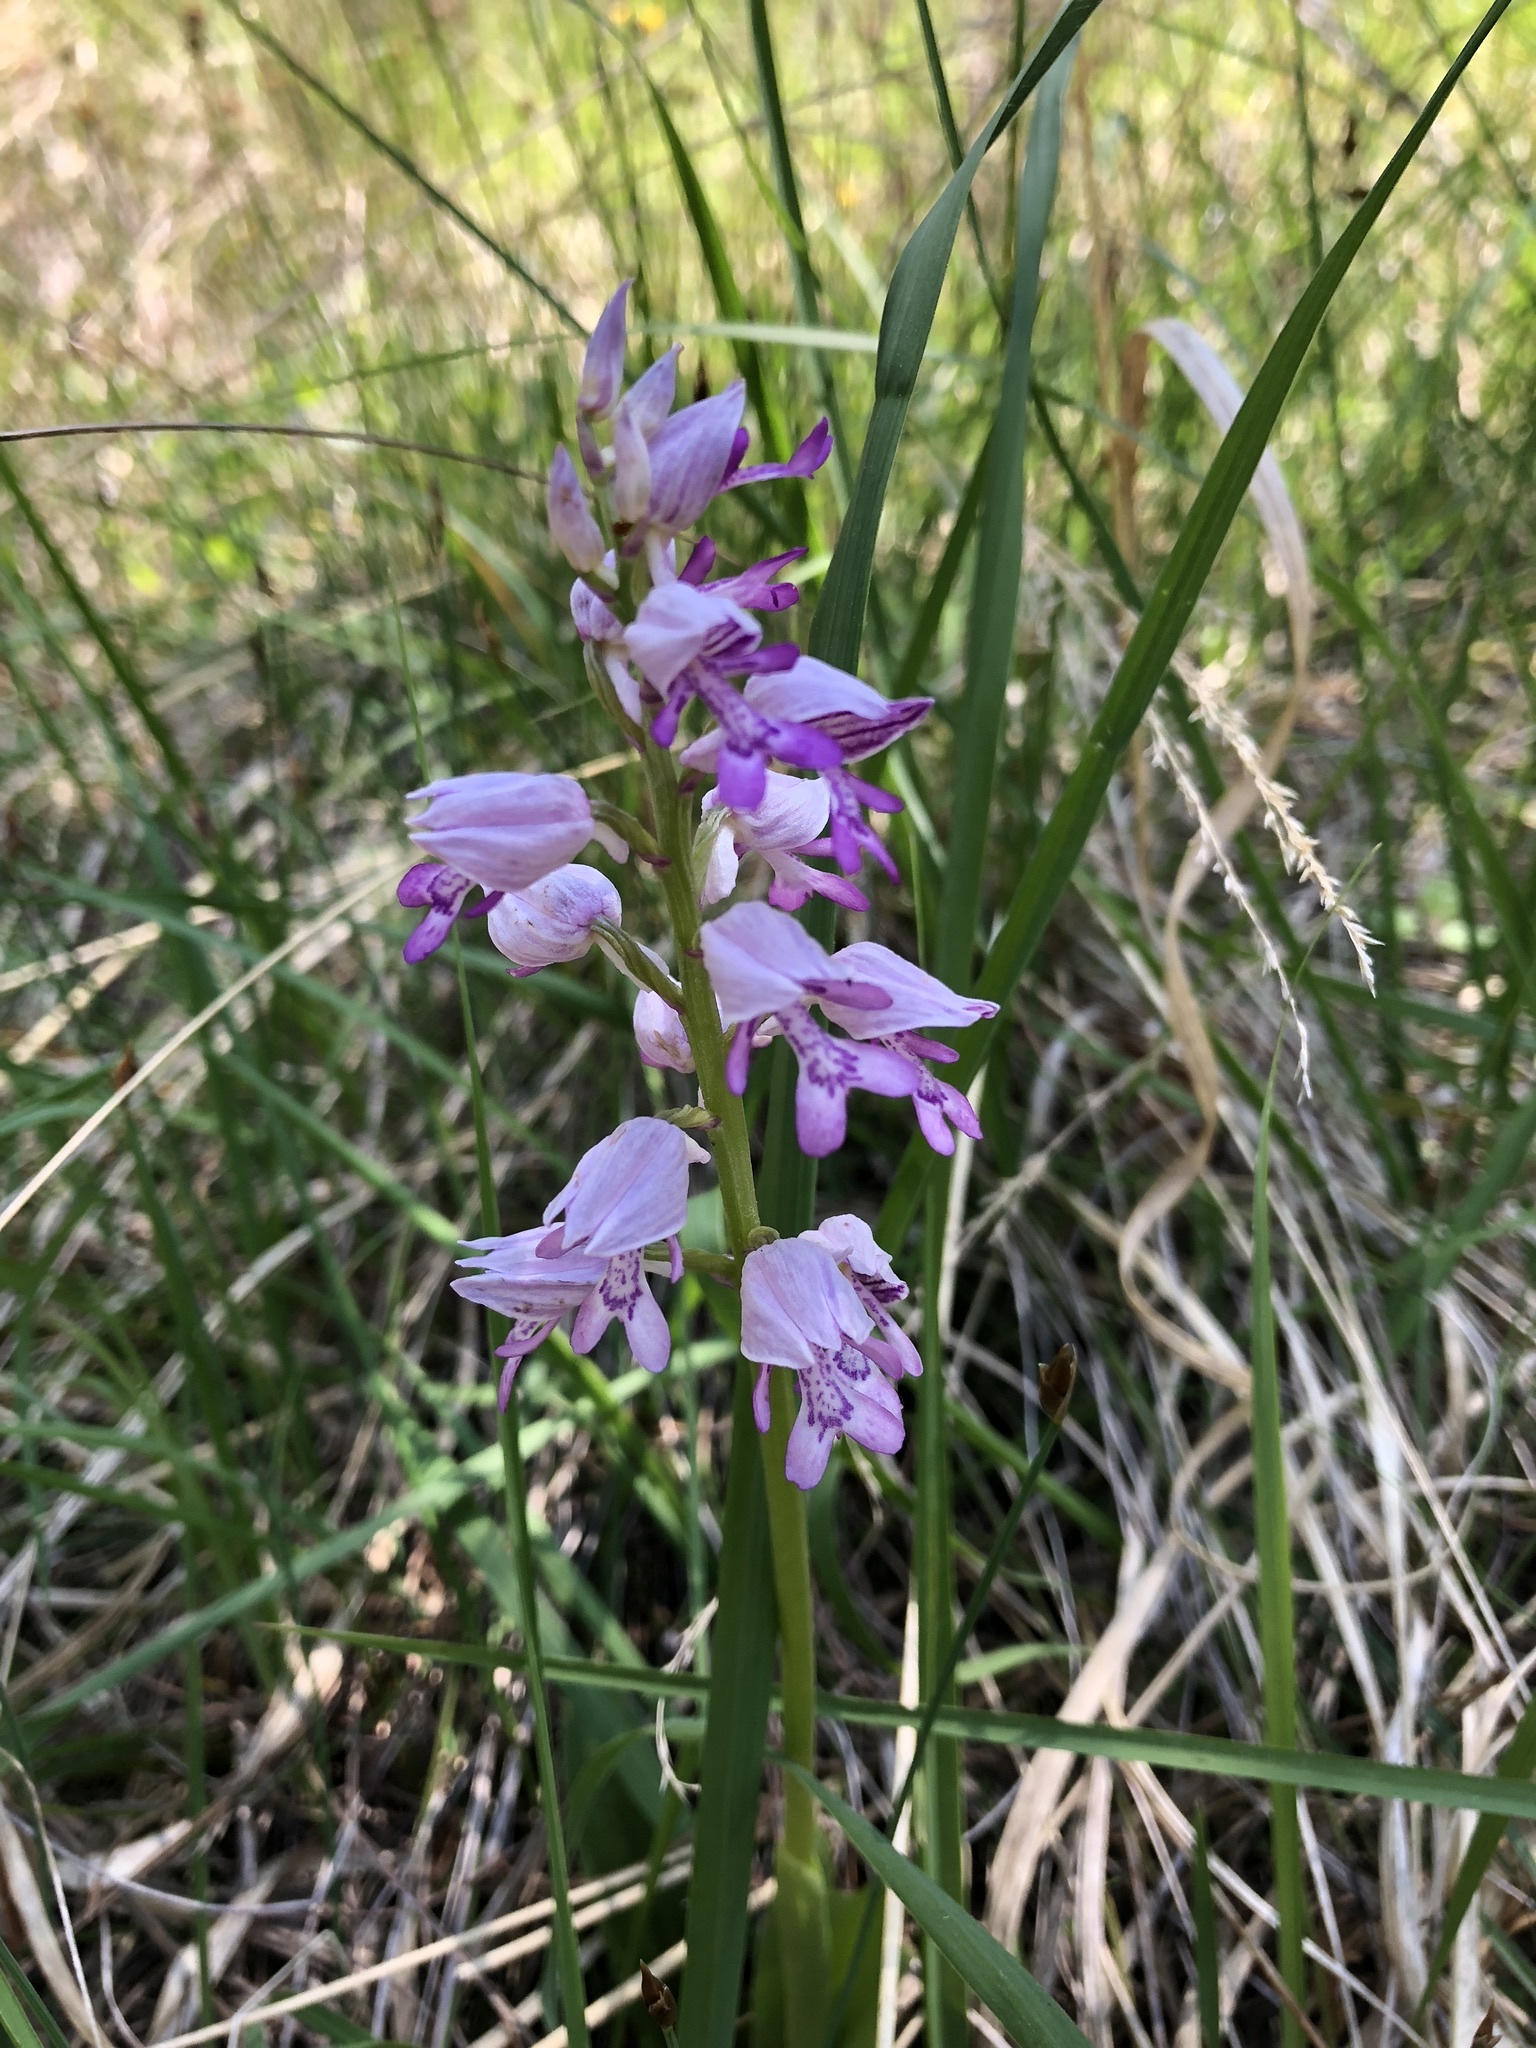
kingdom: Plantae
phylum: Tracheophyta
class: Liliopsida
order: Asparagales
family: Orchidaceae
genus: Orchis
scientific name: Orchis militaris
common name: Military orchid
